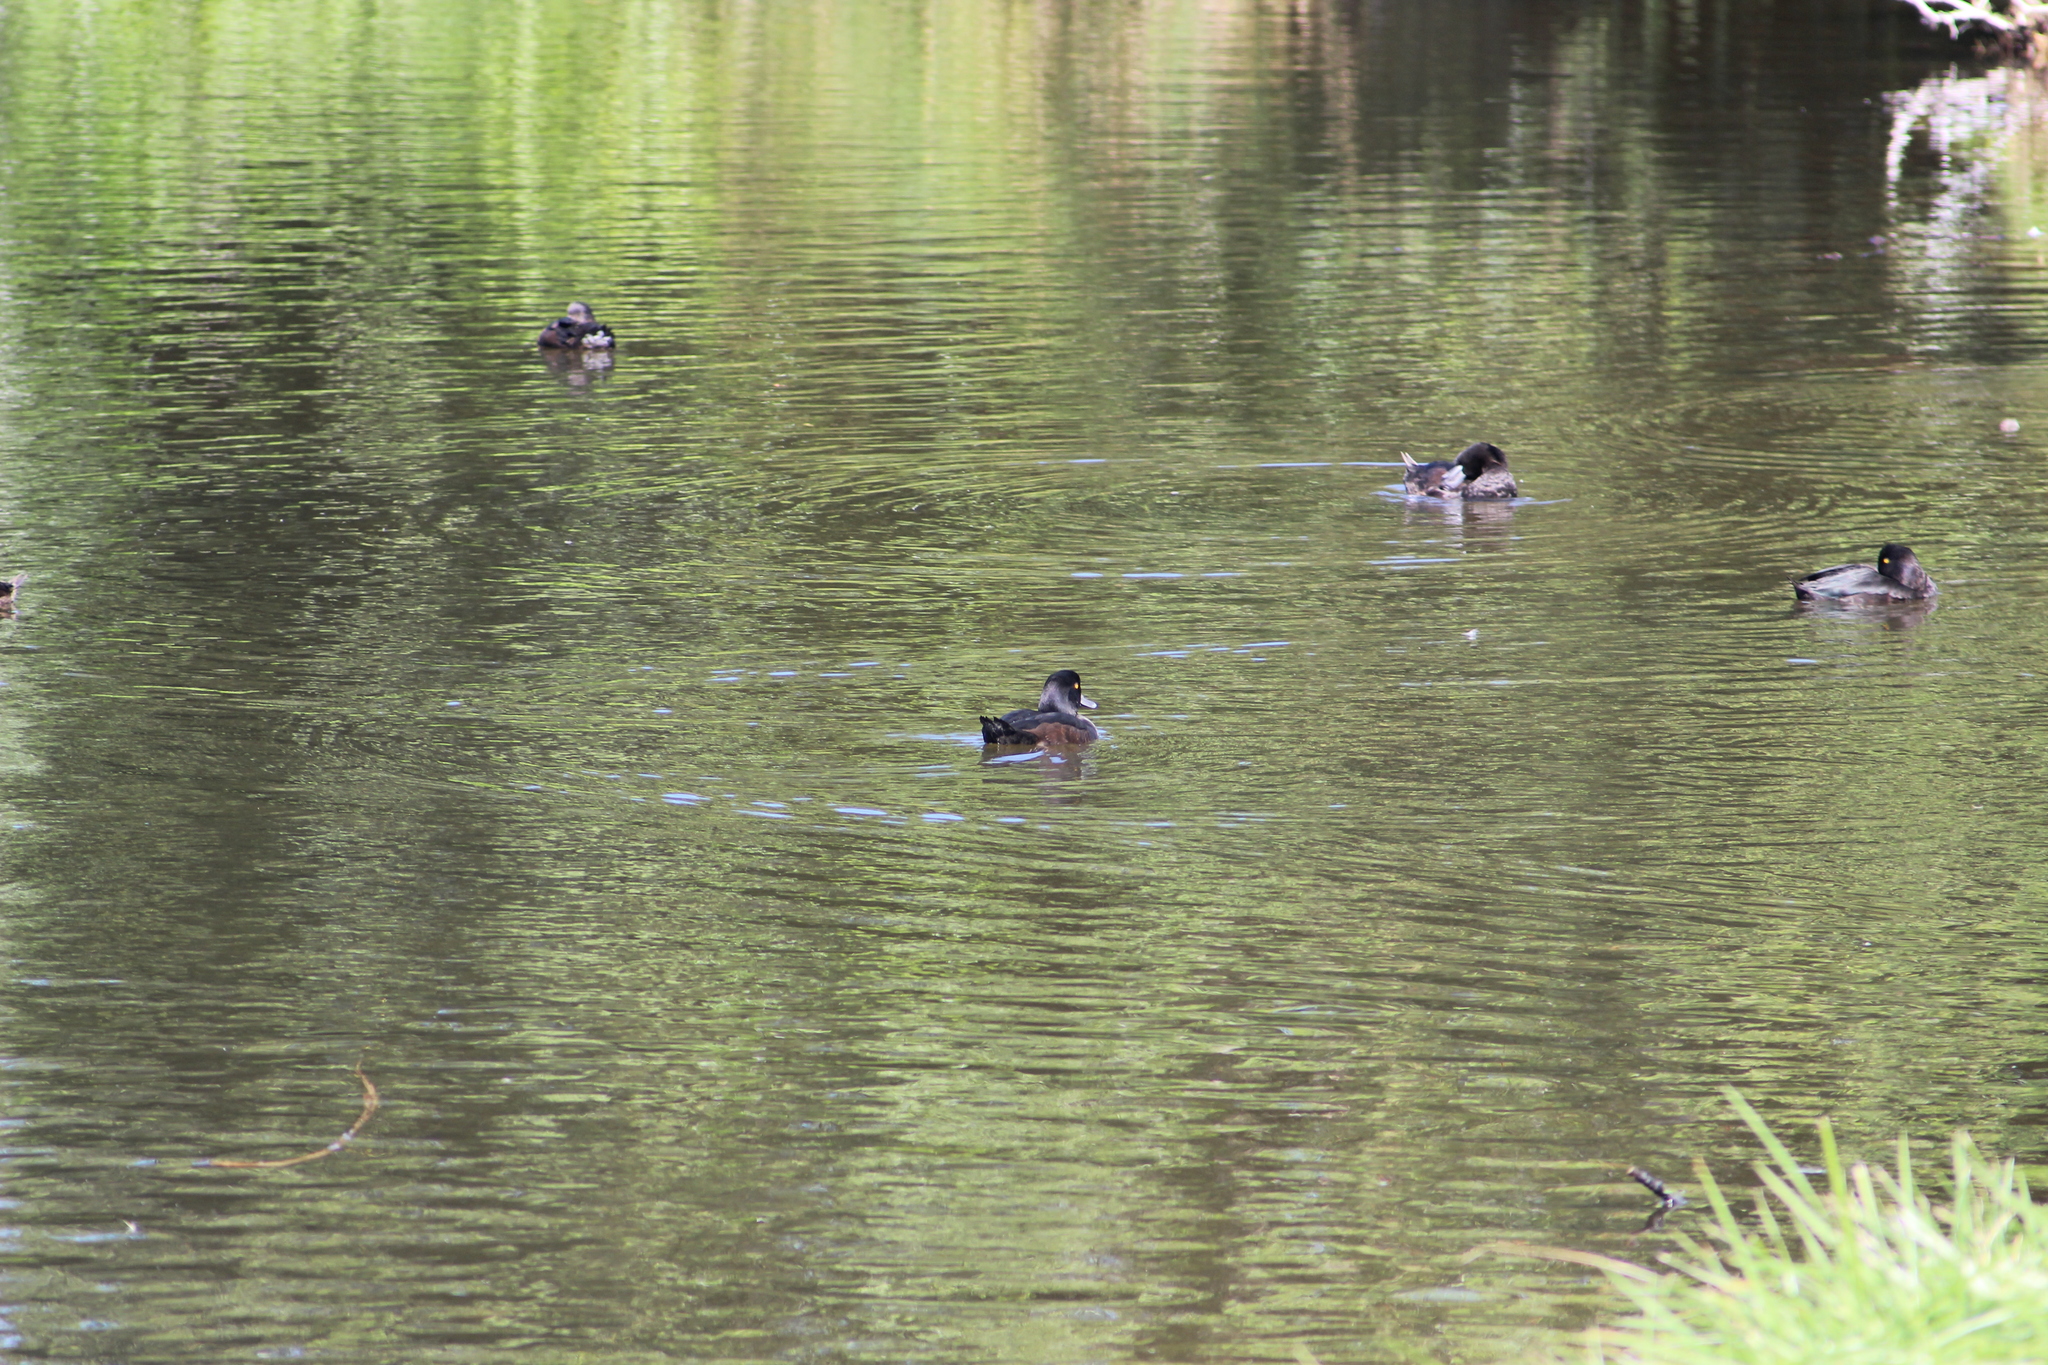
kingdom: Animalia
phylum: Chordata
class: Aves
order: Anseriformes
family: Anatidae
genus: Aythya
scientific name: Aythya novaeseelandiae
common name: New zealand scaup
